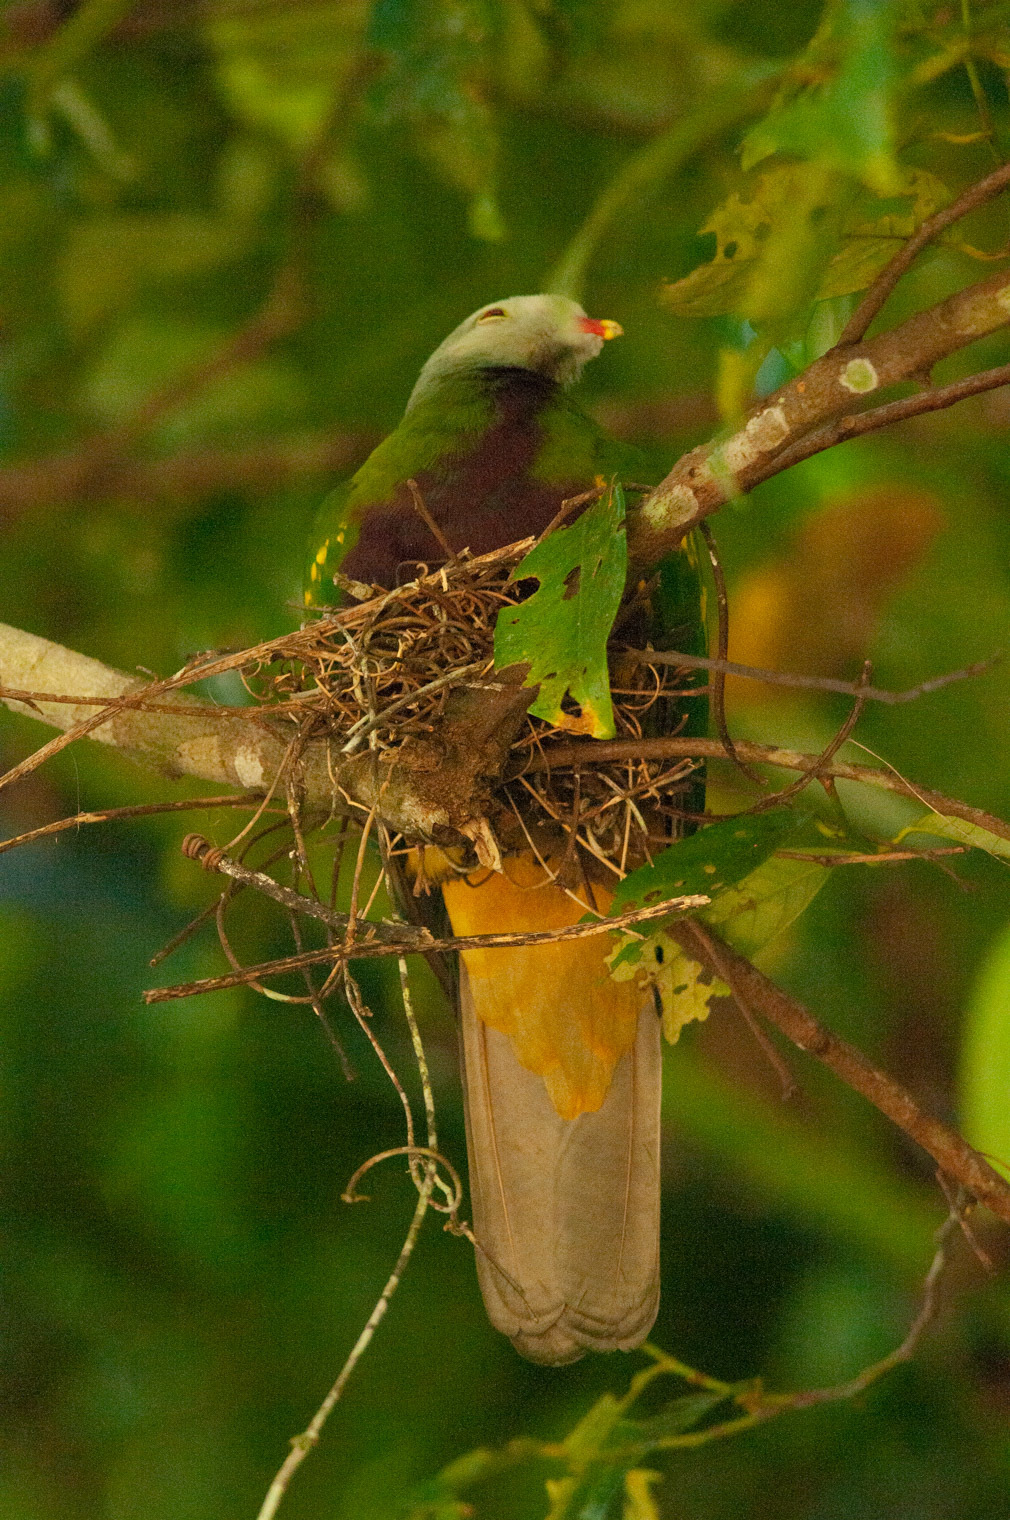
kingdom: Animalia
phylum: Chordata
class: Aves
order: Columbiformes
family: Columbidae
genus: Ptilinopus
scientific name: Ptilinopus magnificus
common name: Wompoo fruit dove
